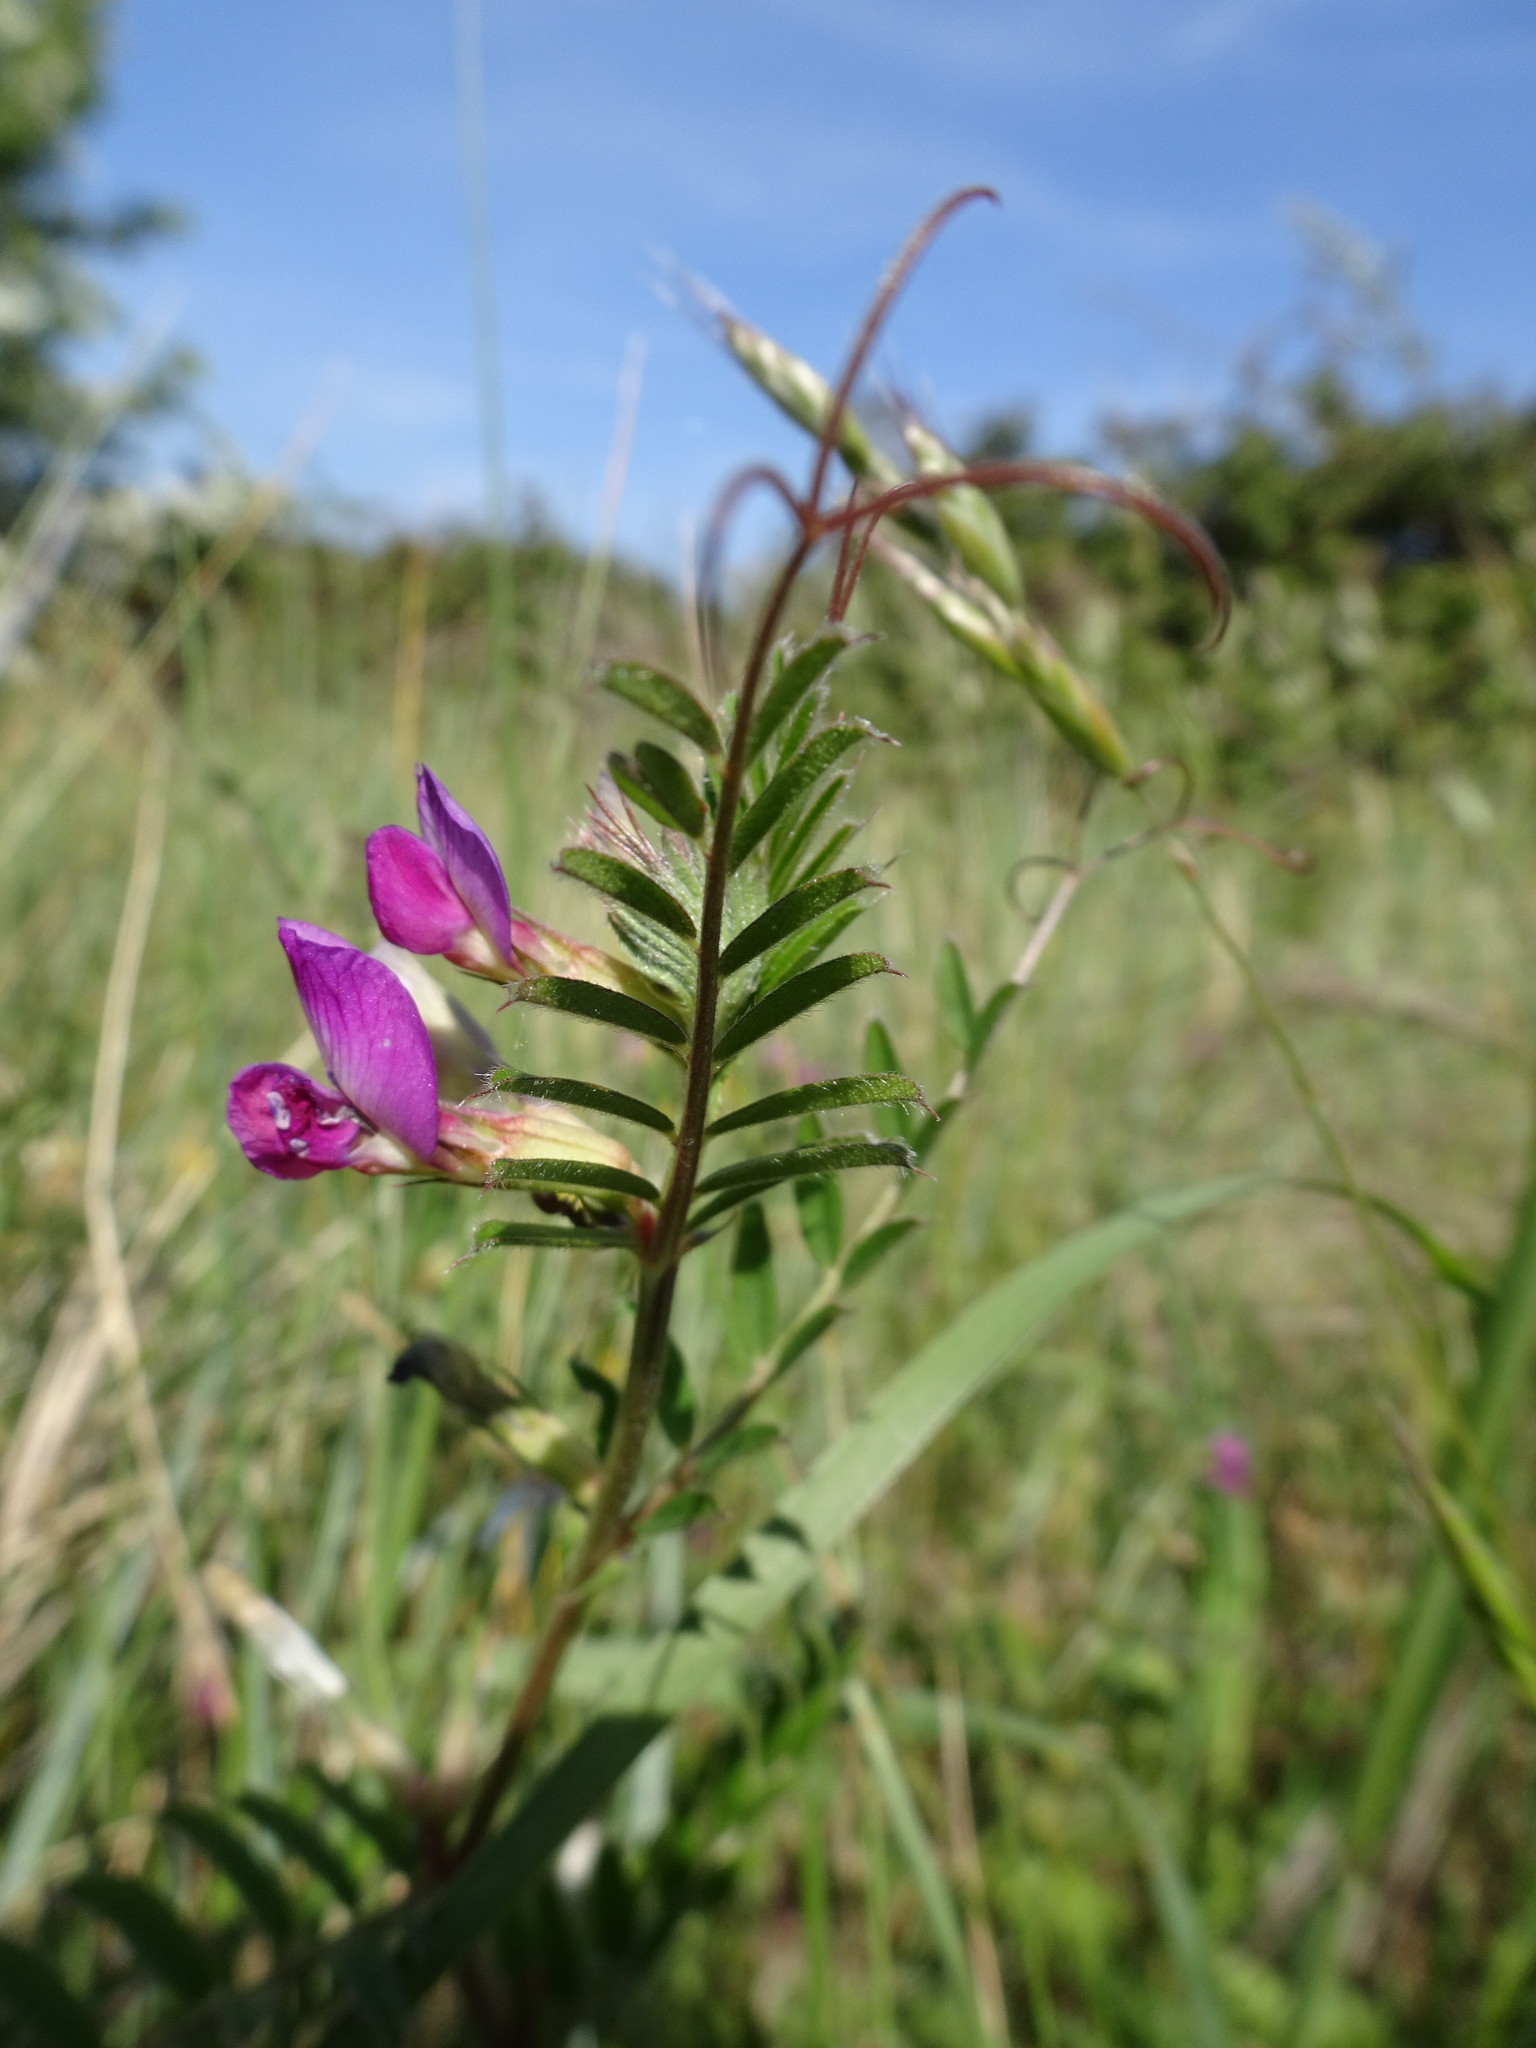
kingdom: Plantae
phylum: Tracheophyta
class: Magnoliopsida
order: Fabales
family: Fabaceae
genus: Vicia
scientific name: Vicia sativa
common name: Garden vetch
